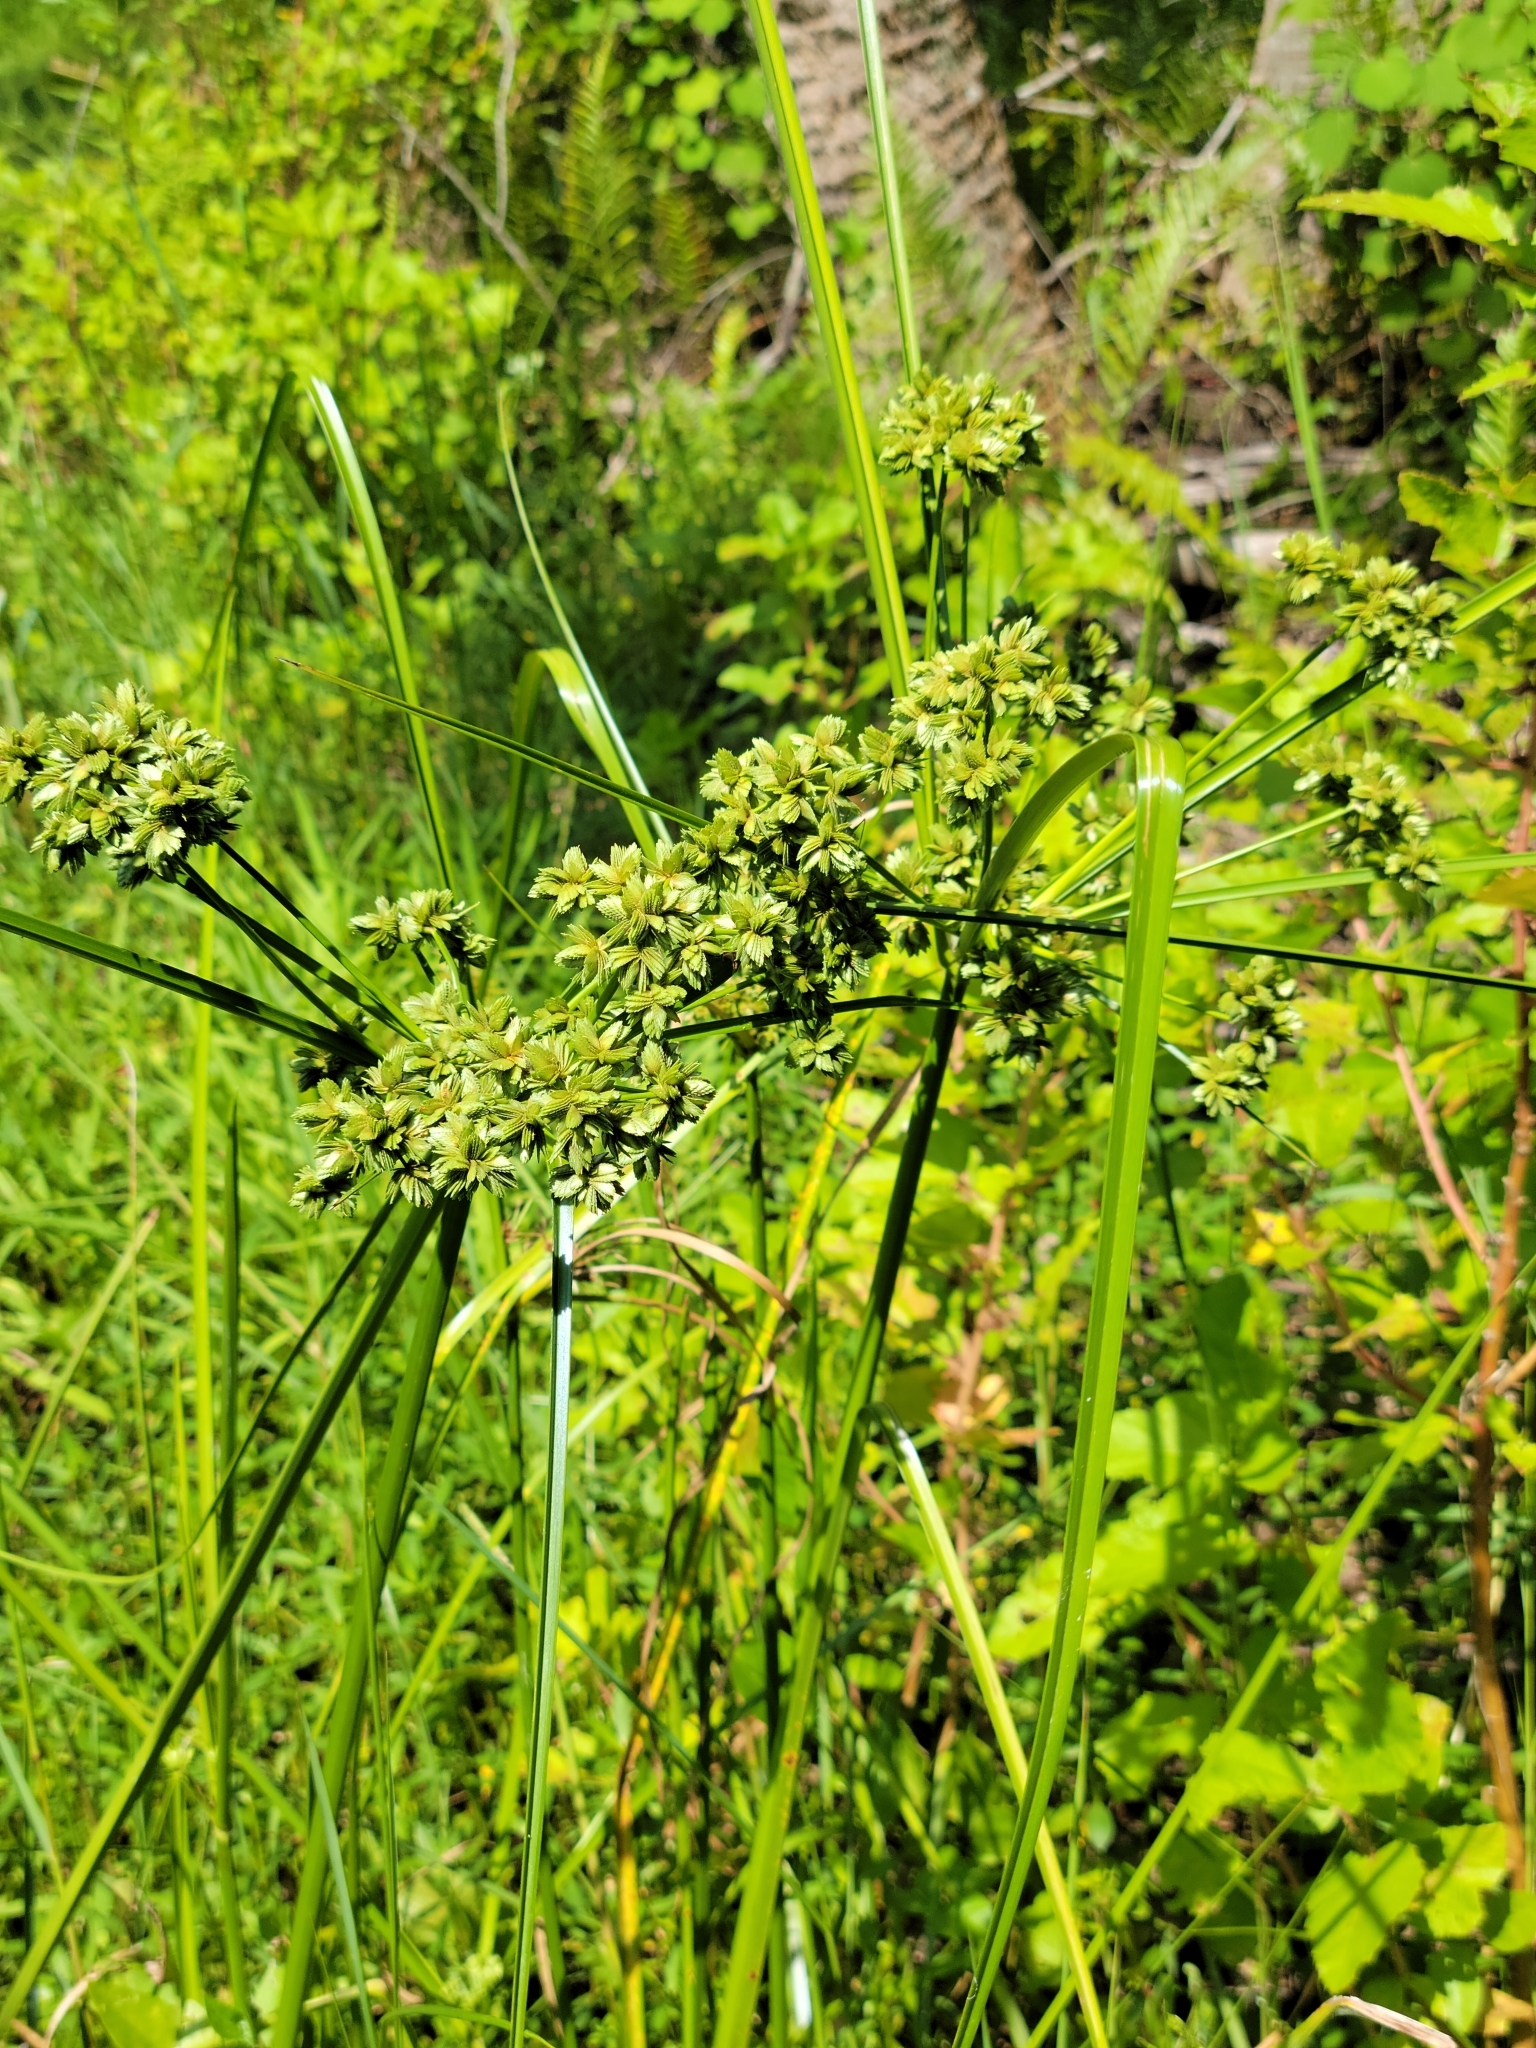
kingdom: Plantae
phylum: Tracheophyta
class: Liliopsida
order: Poales
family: Cyperaceae
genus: Cyperus
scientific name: Cyperus distinctus
